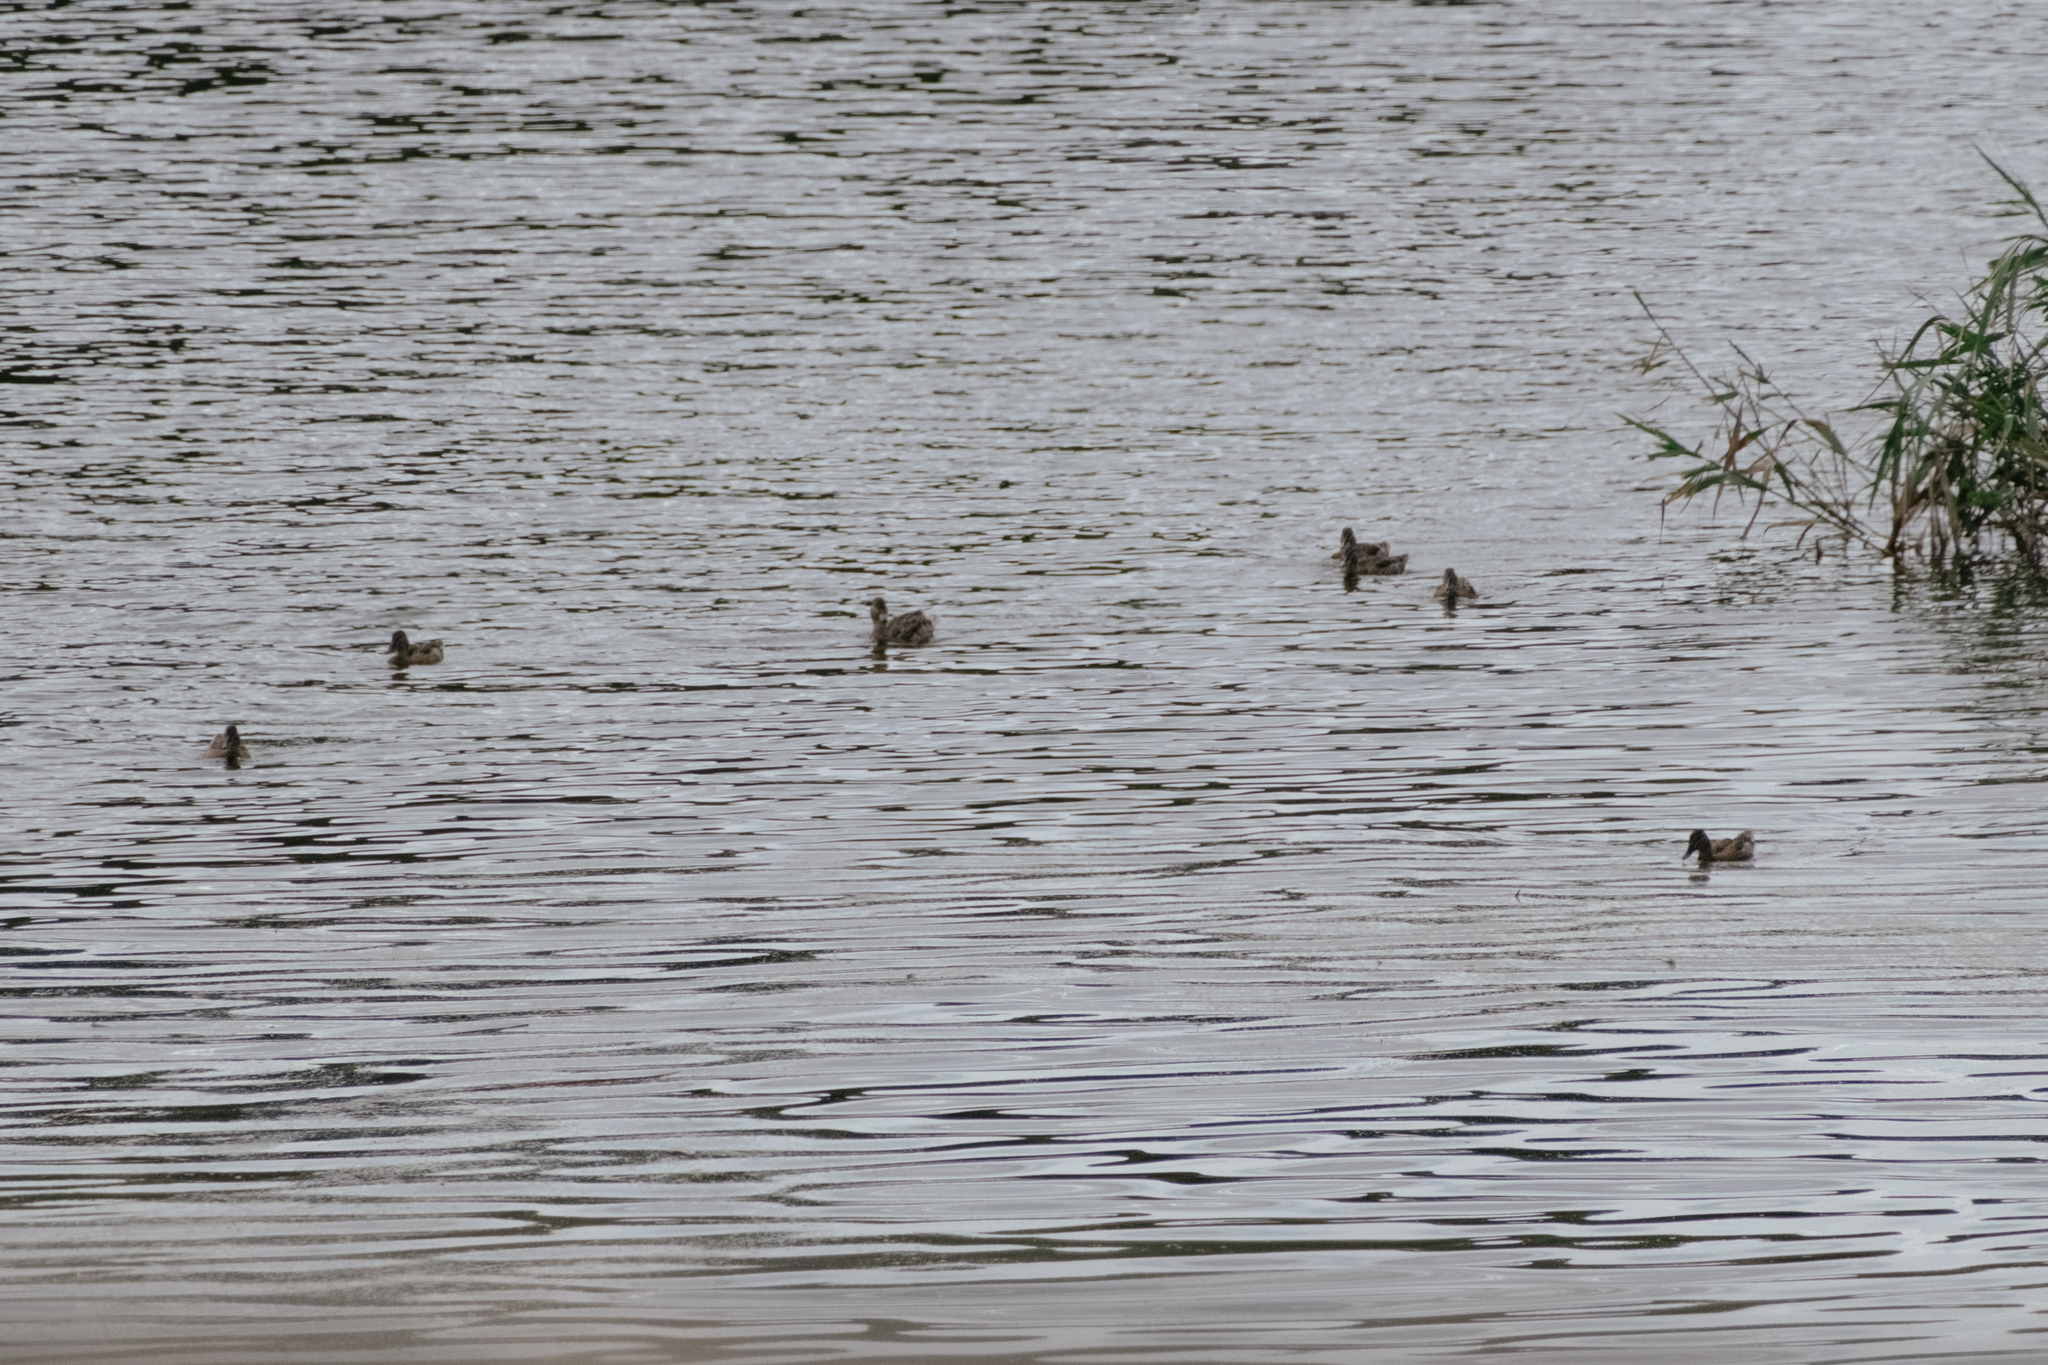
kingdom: Animalia
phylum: Chordata
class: Aves
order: Anseriformes
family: Anatidae
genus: Anas
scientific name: Anas platyrhynchos
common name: Mallard
